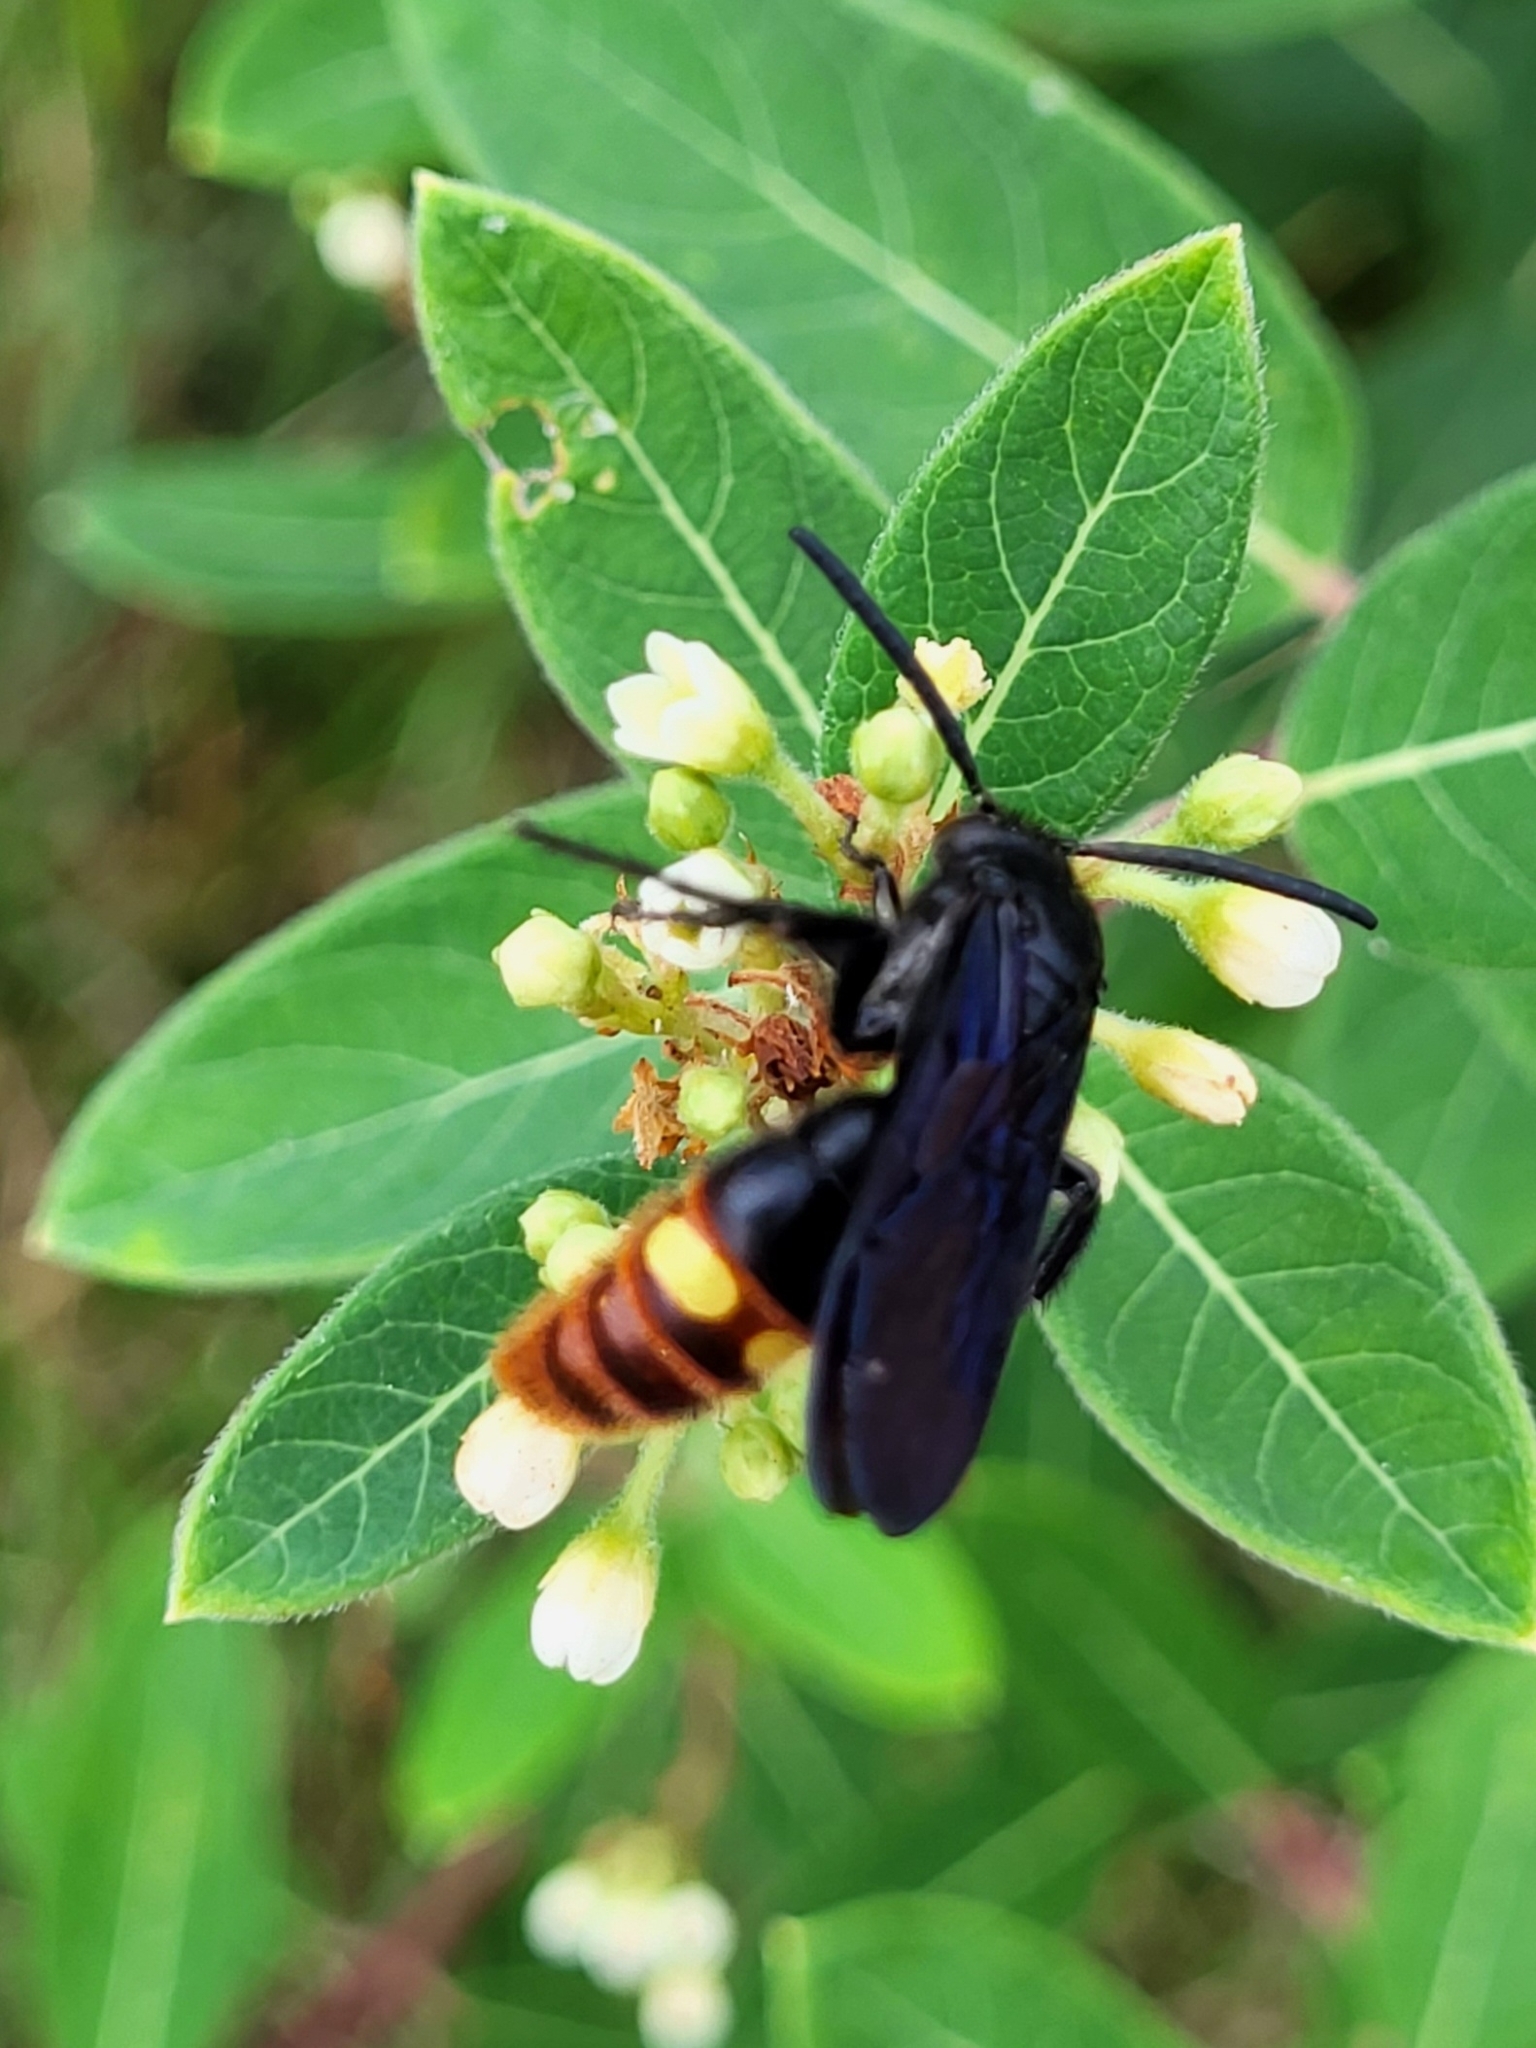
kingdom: Animalia
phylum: Arthropoda
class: Insecta
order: Hymenoptera
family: Scoliidae
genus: Scolia
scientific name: Scolia dubia
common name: Blue-winged scoliid wasp
